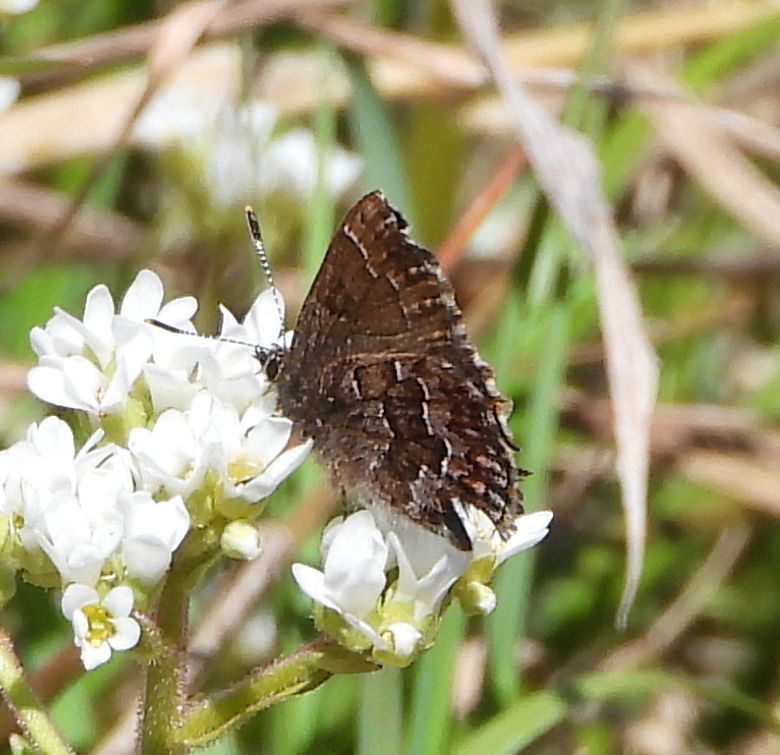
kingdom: Animalia
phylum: Arthropoda
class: Insecta
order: Lepidoptera
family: Lycaenidae
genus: Incisalia
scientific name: Incisalia niphon
